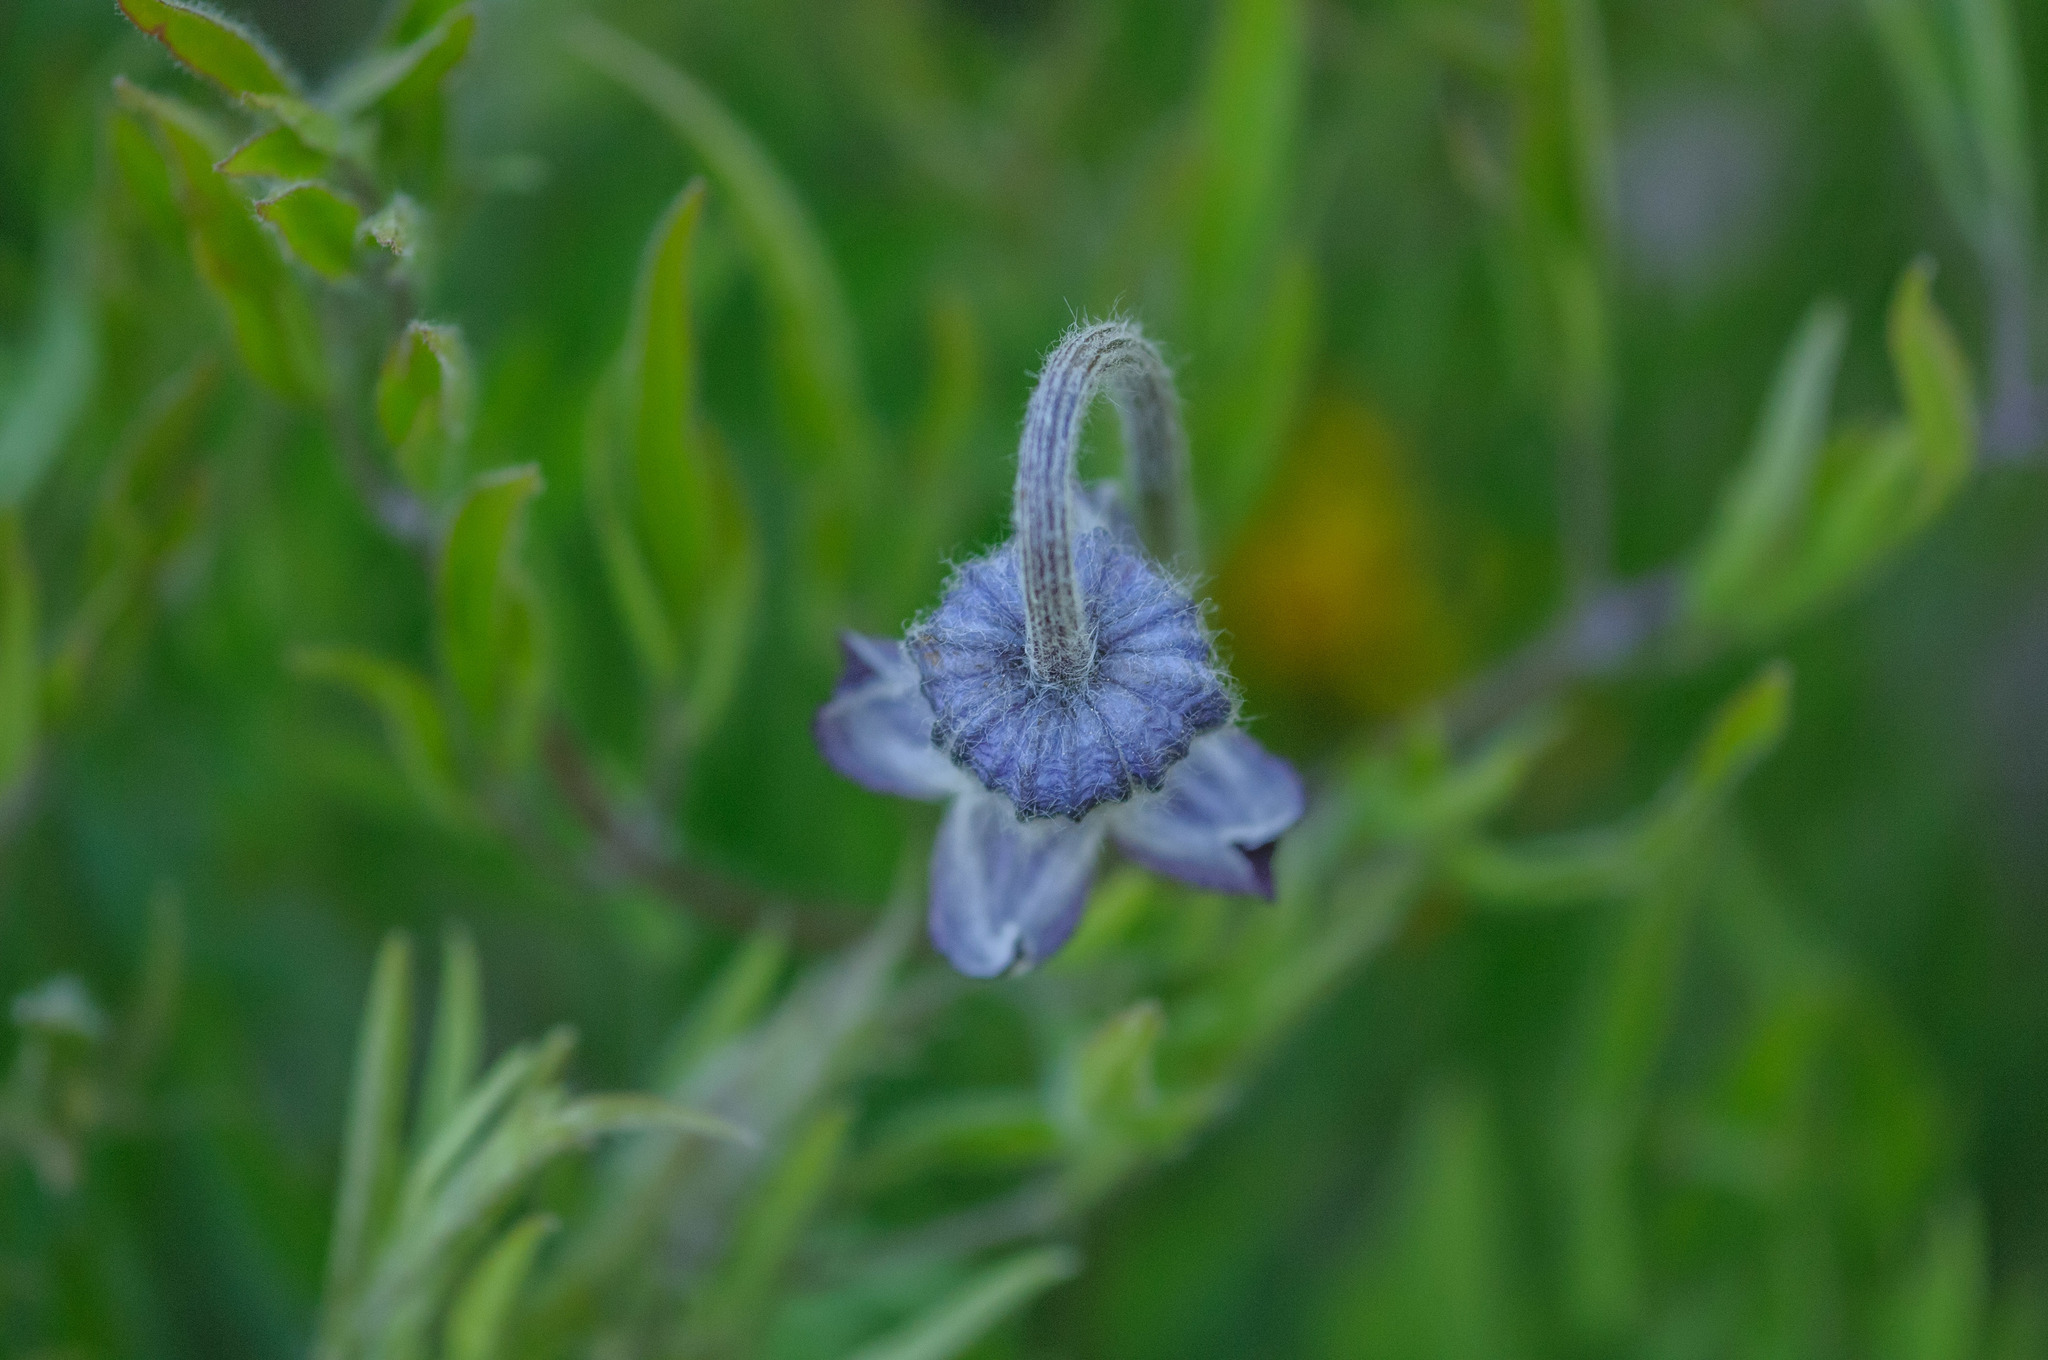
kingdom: Plantae
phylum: Tracheophyta
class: Magnoliopsida
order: Ranunculales
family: Ranunculaceae
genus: Clematis
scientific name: Clematis hirsutissima
